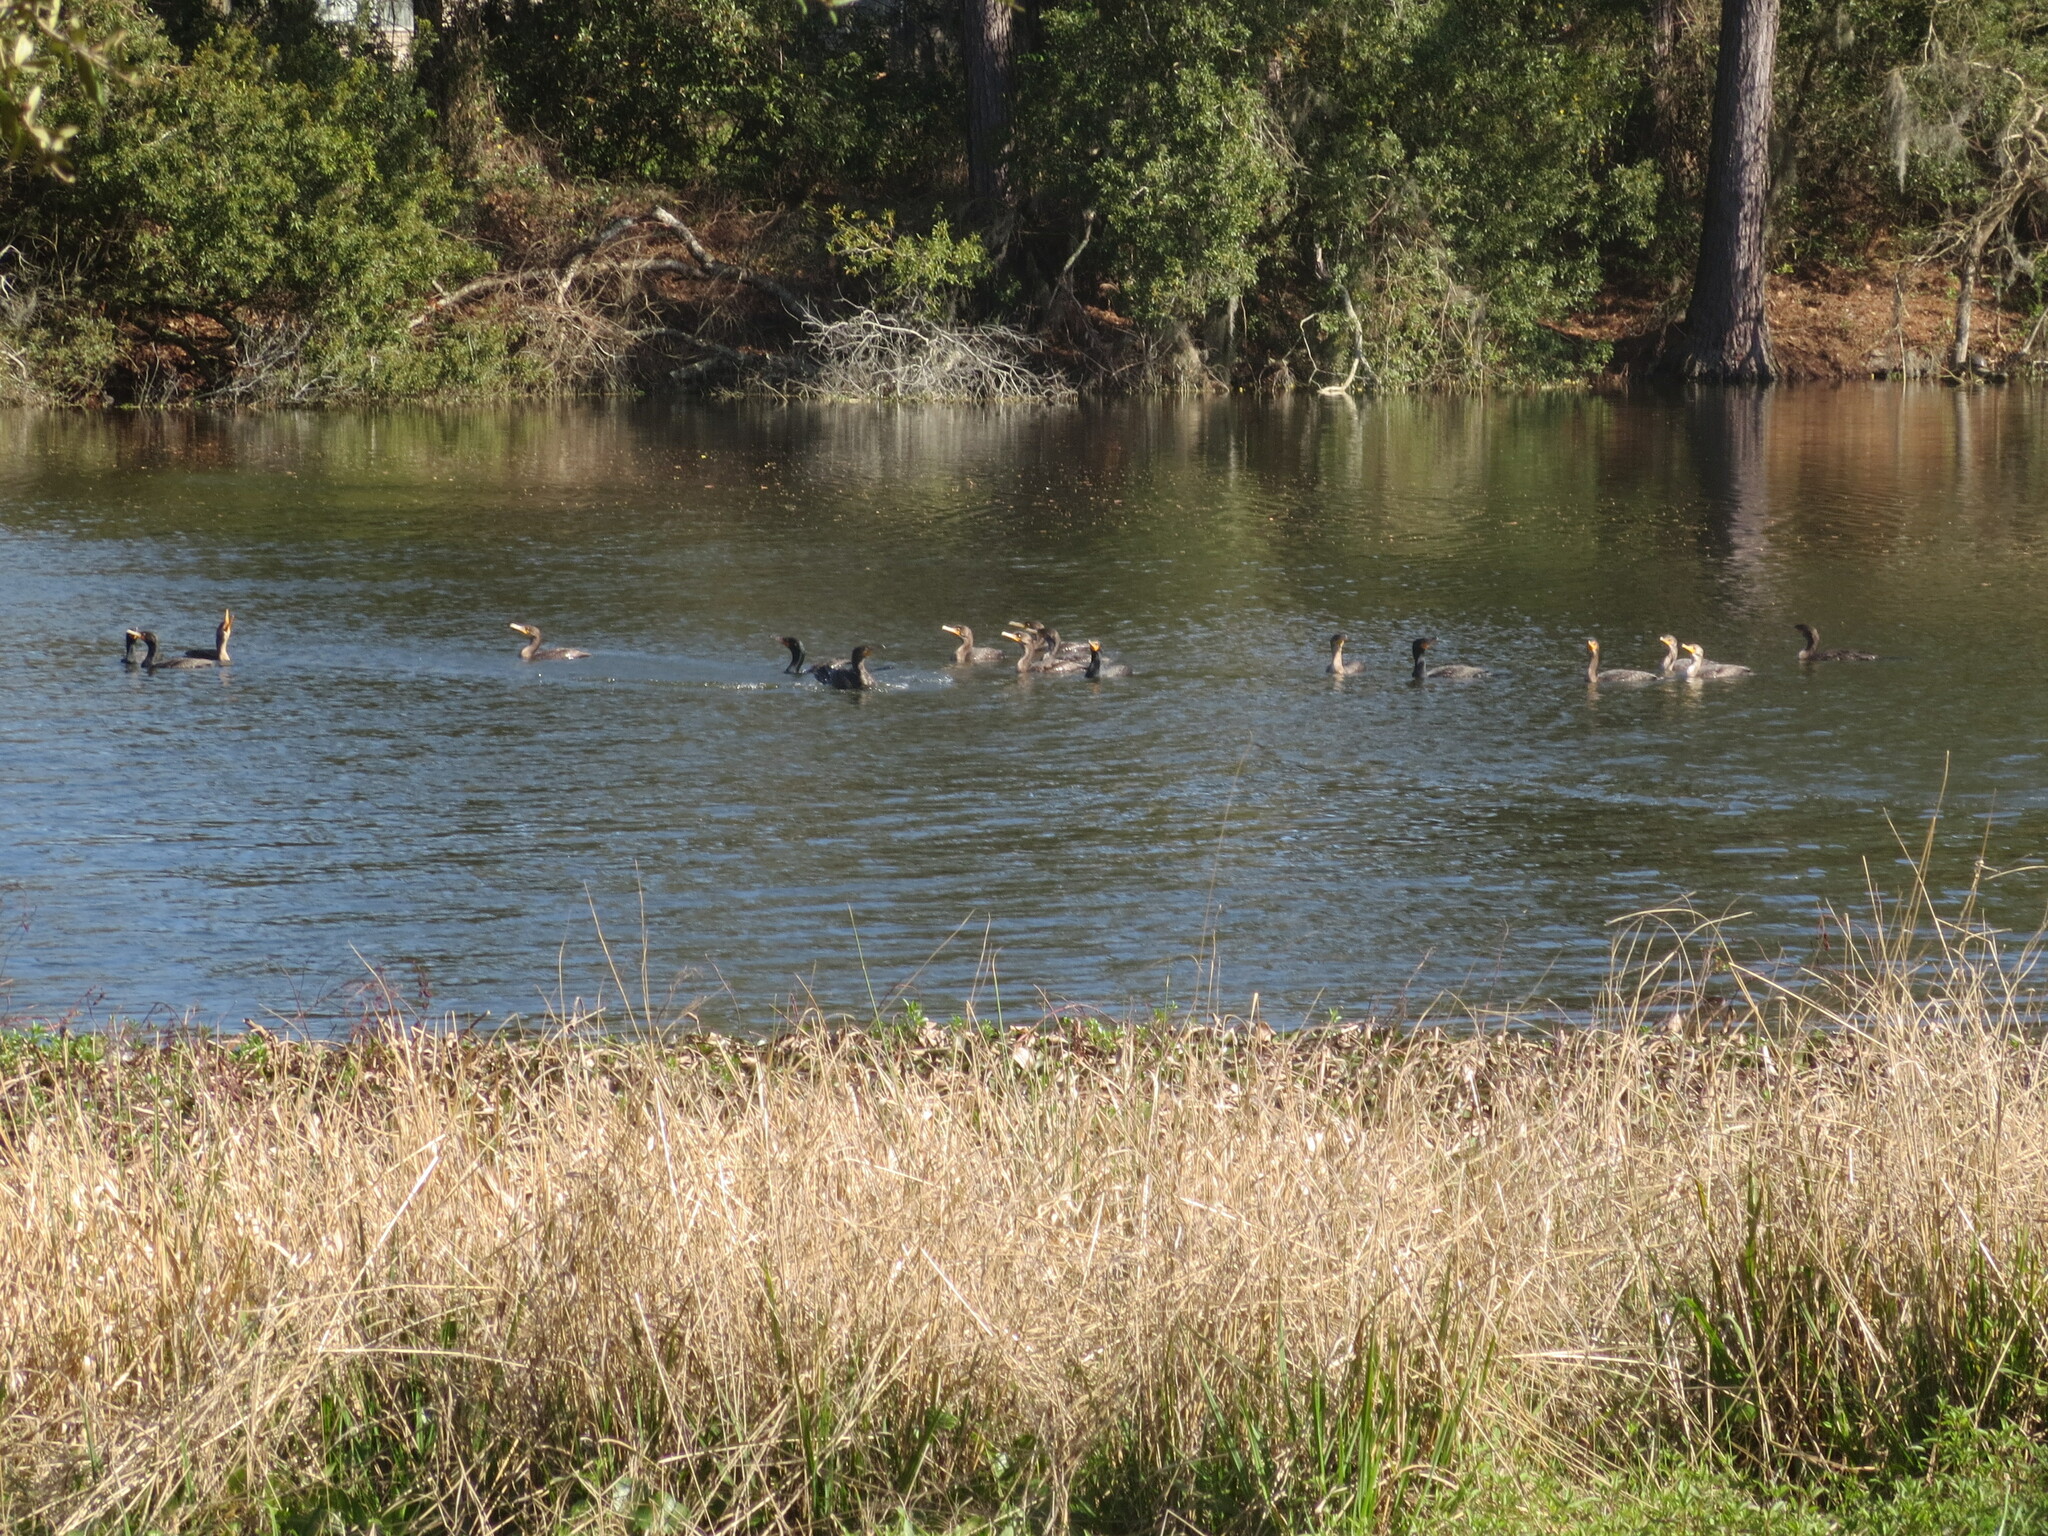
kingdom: Animalia
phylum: Chordata
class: Aves
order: Suliformes
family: Phalacrocoracidae
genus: Phalacrocorax
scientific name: Phalacrocorax auritus
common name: Double-crested cormorant
